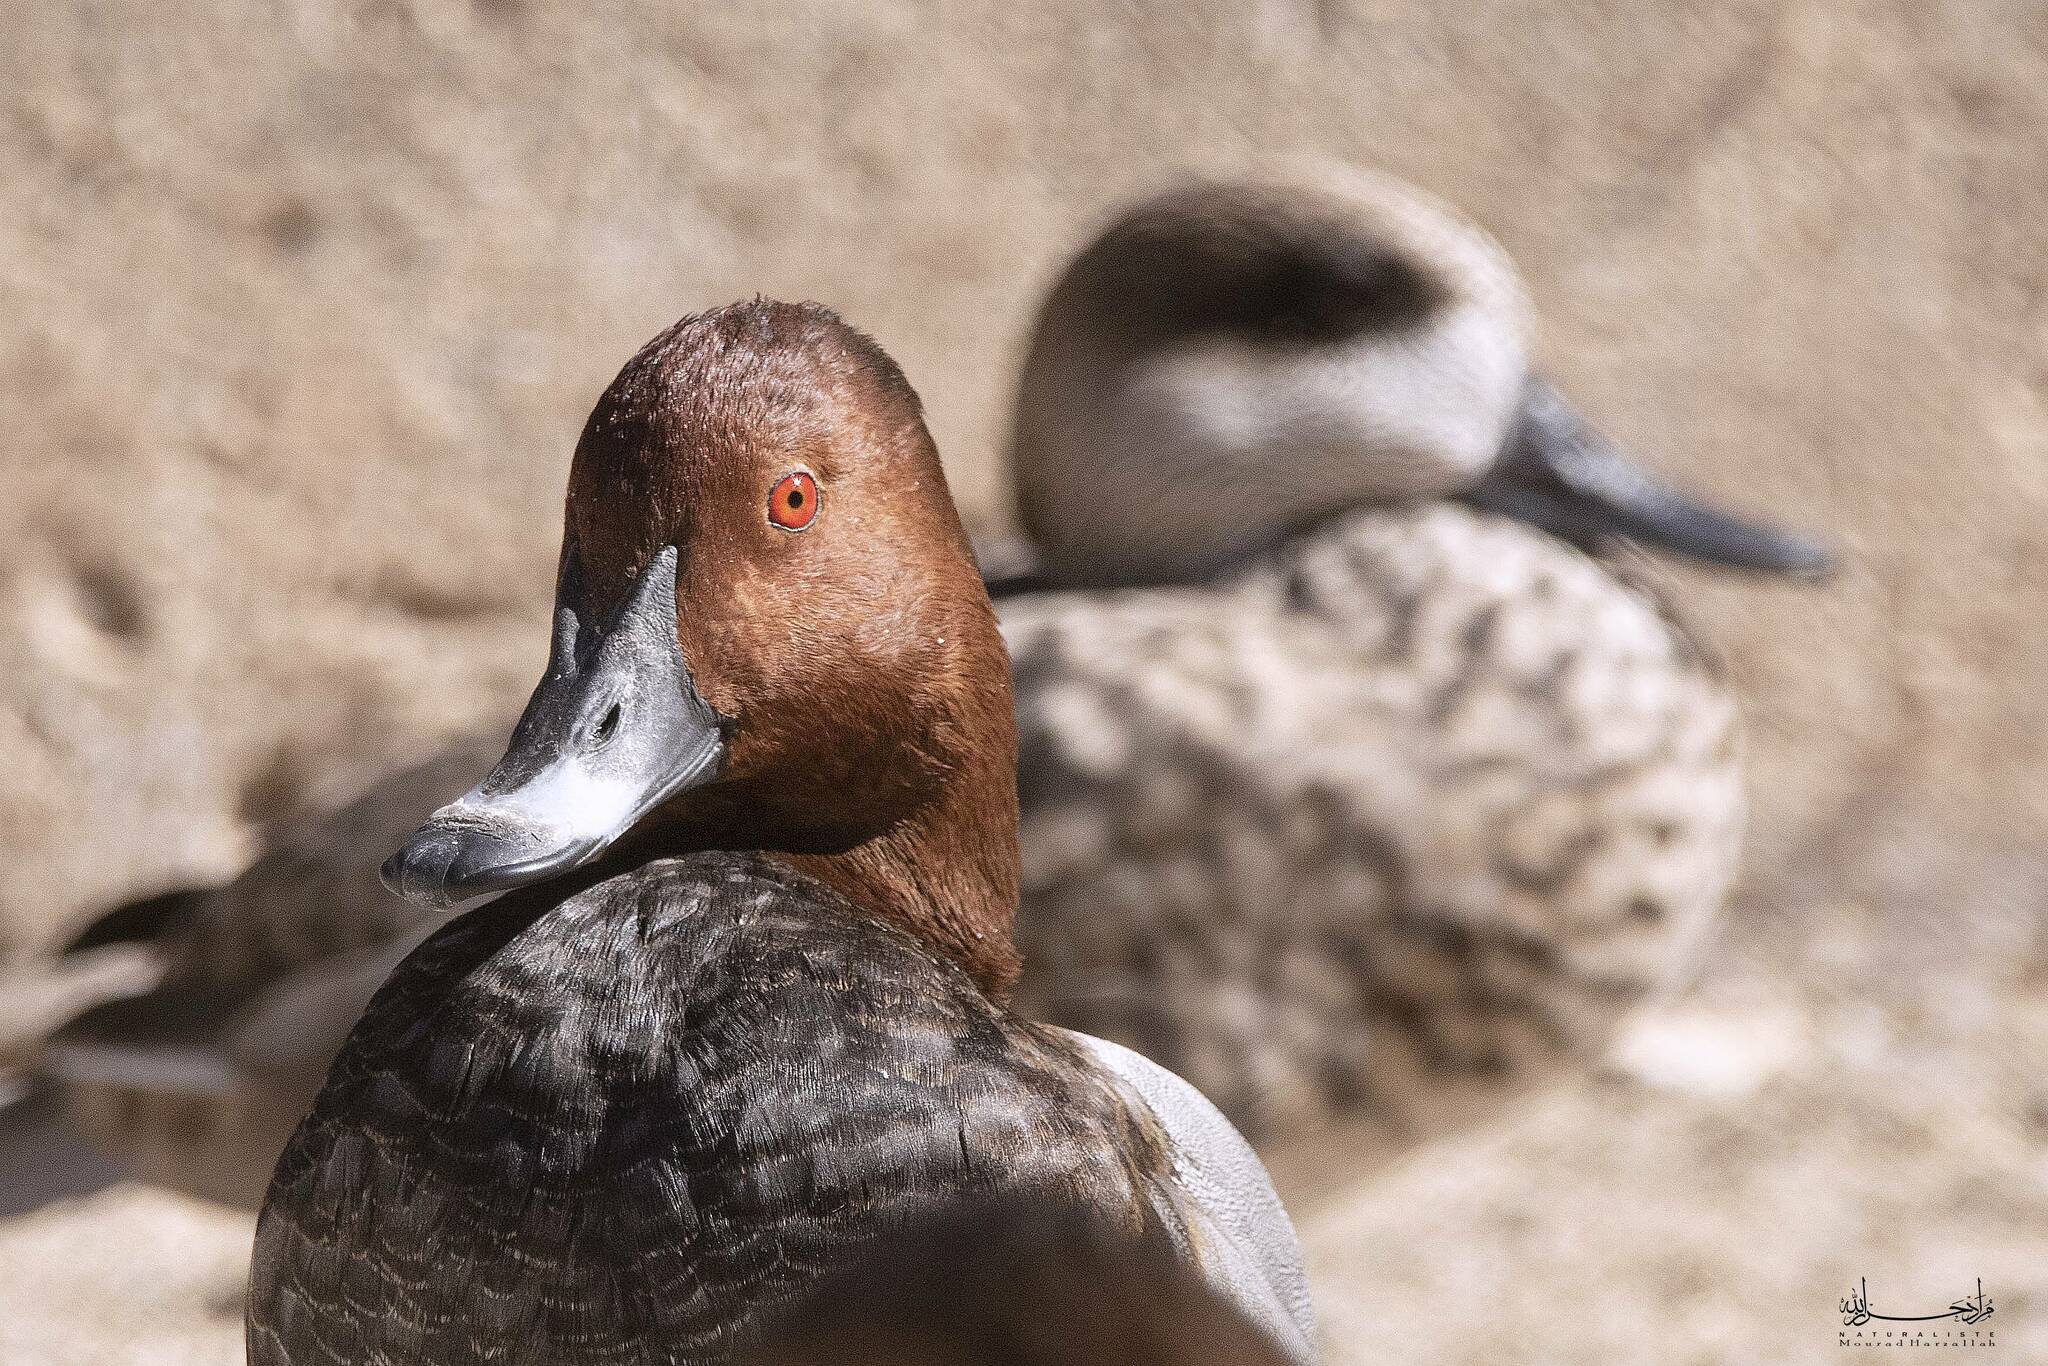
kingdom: Animalia
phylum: Chordata
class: Aves
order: Anseriformes
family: Anatidae
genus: Aythya
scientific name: Aythya ferina
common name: Common pochard
